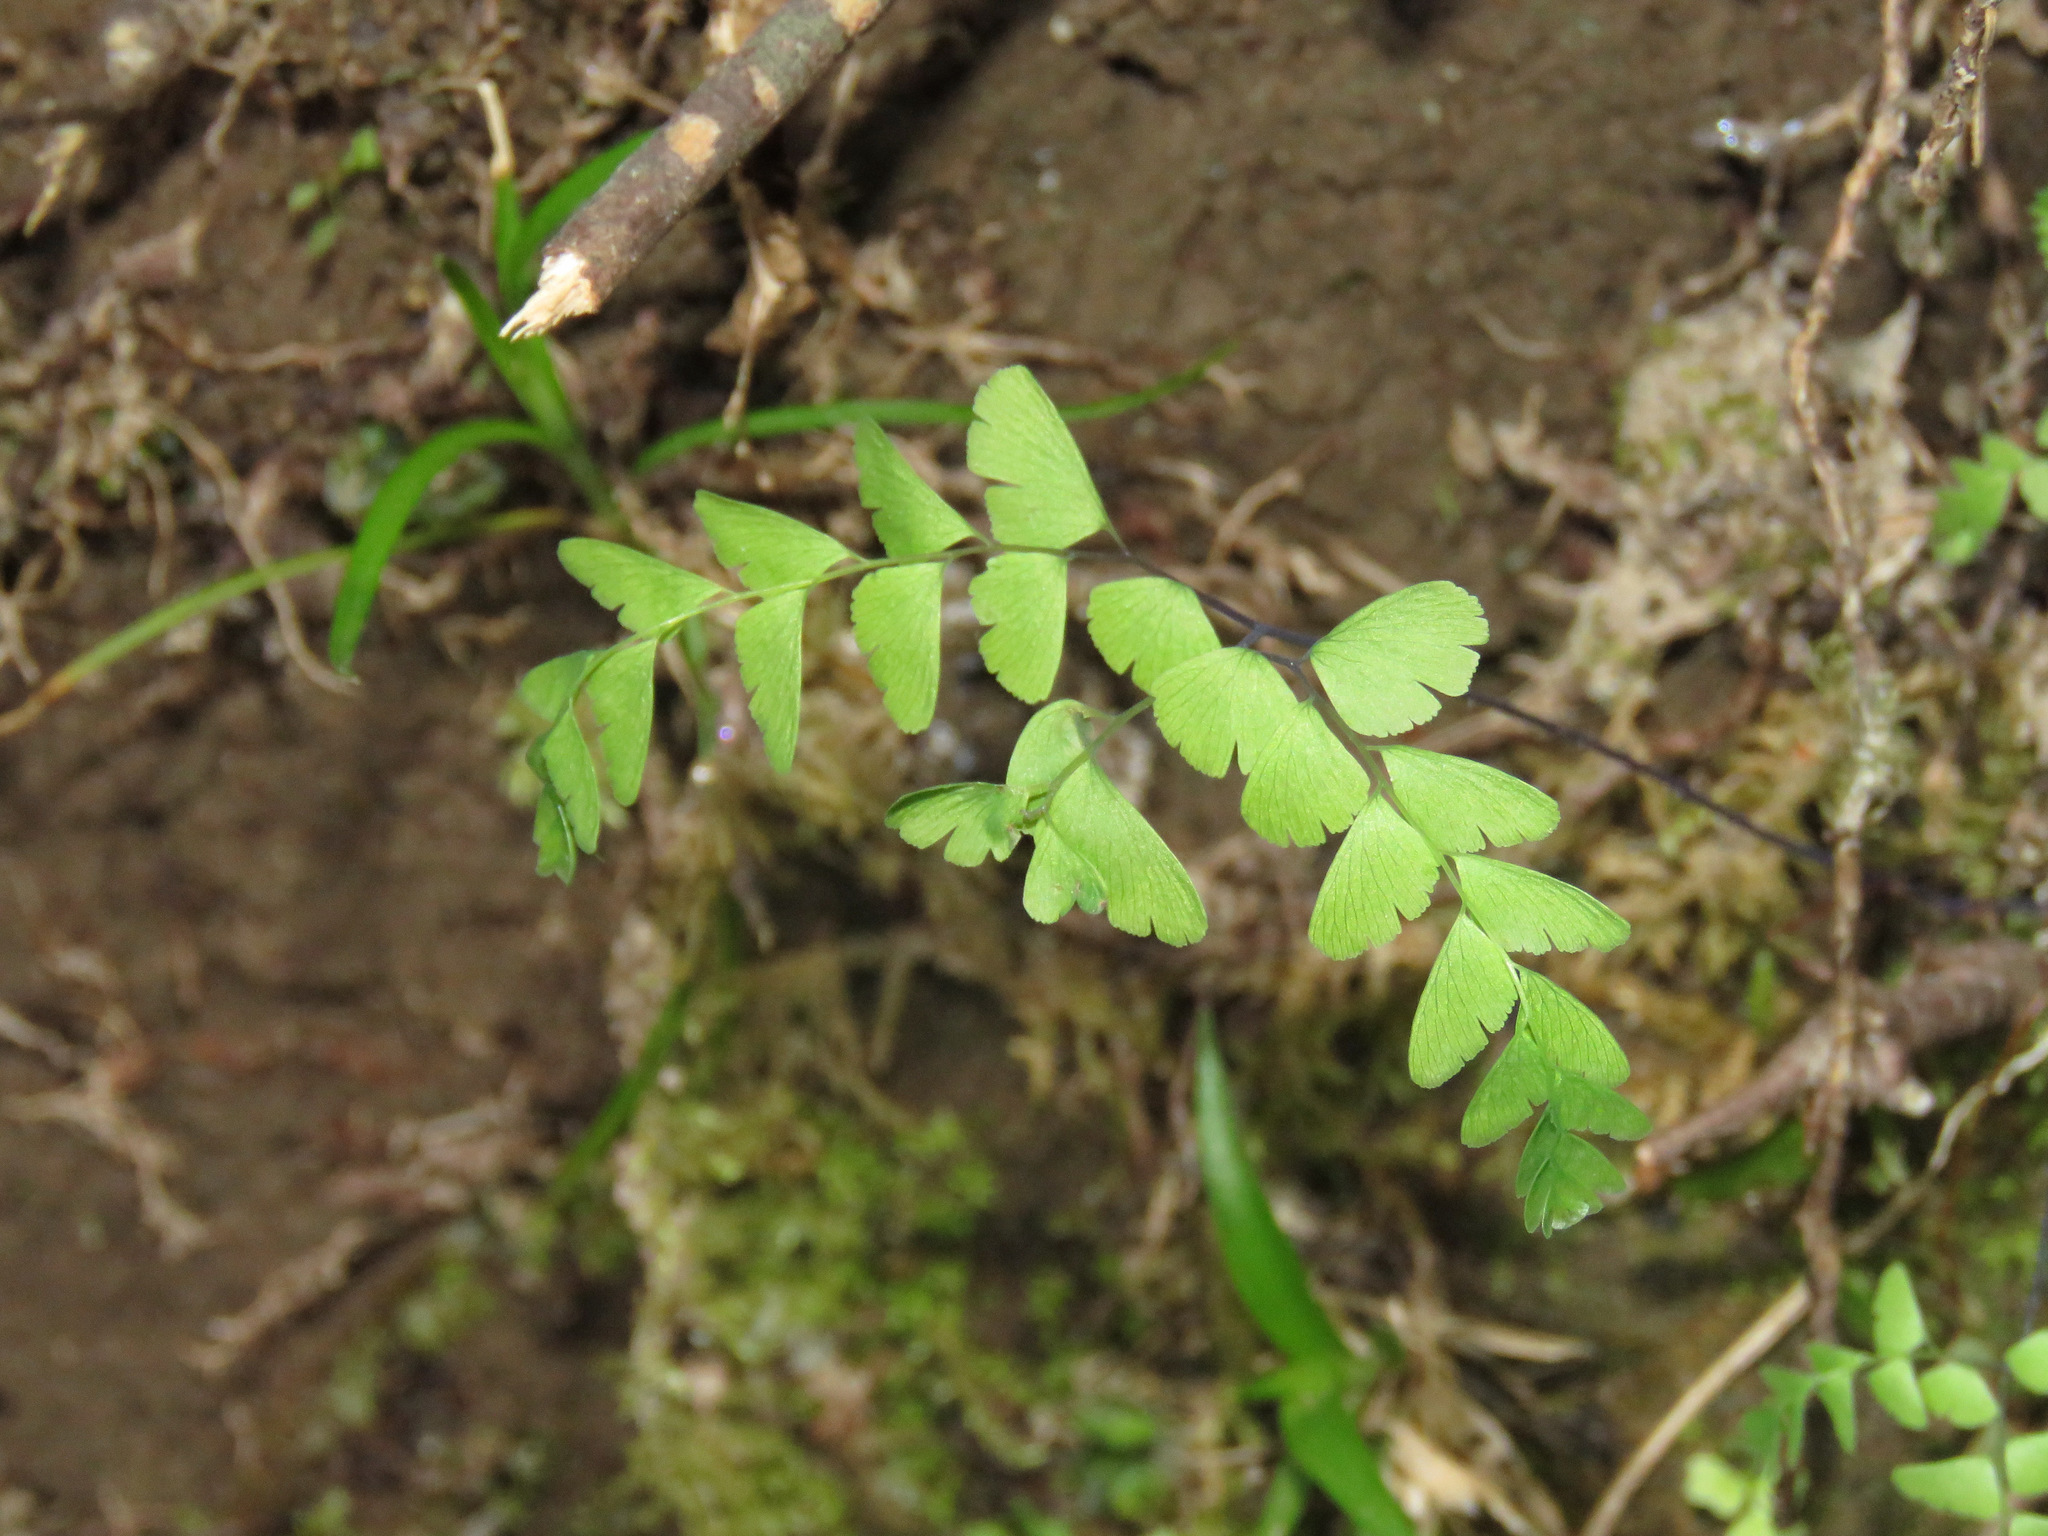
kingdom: Plantae
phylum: Tracheophyta
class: Polypodiopsida
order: Polypodiales
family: Pteridaceae
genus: Adiantum
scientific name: Adiantum aleuticum
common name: Aleutian maidenhair fern
